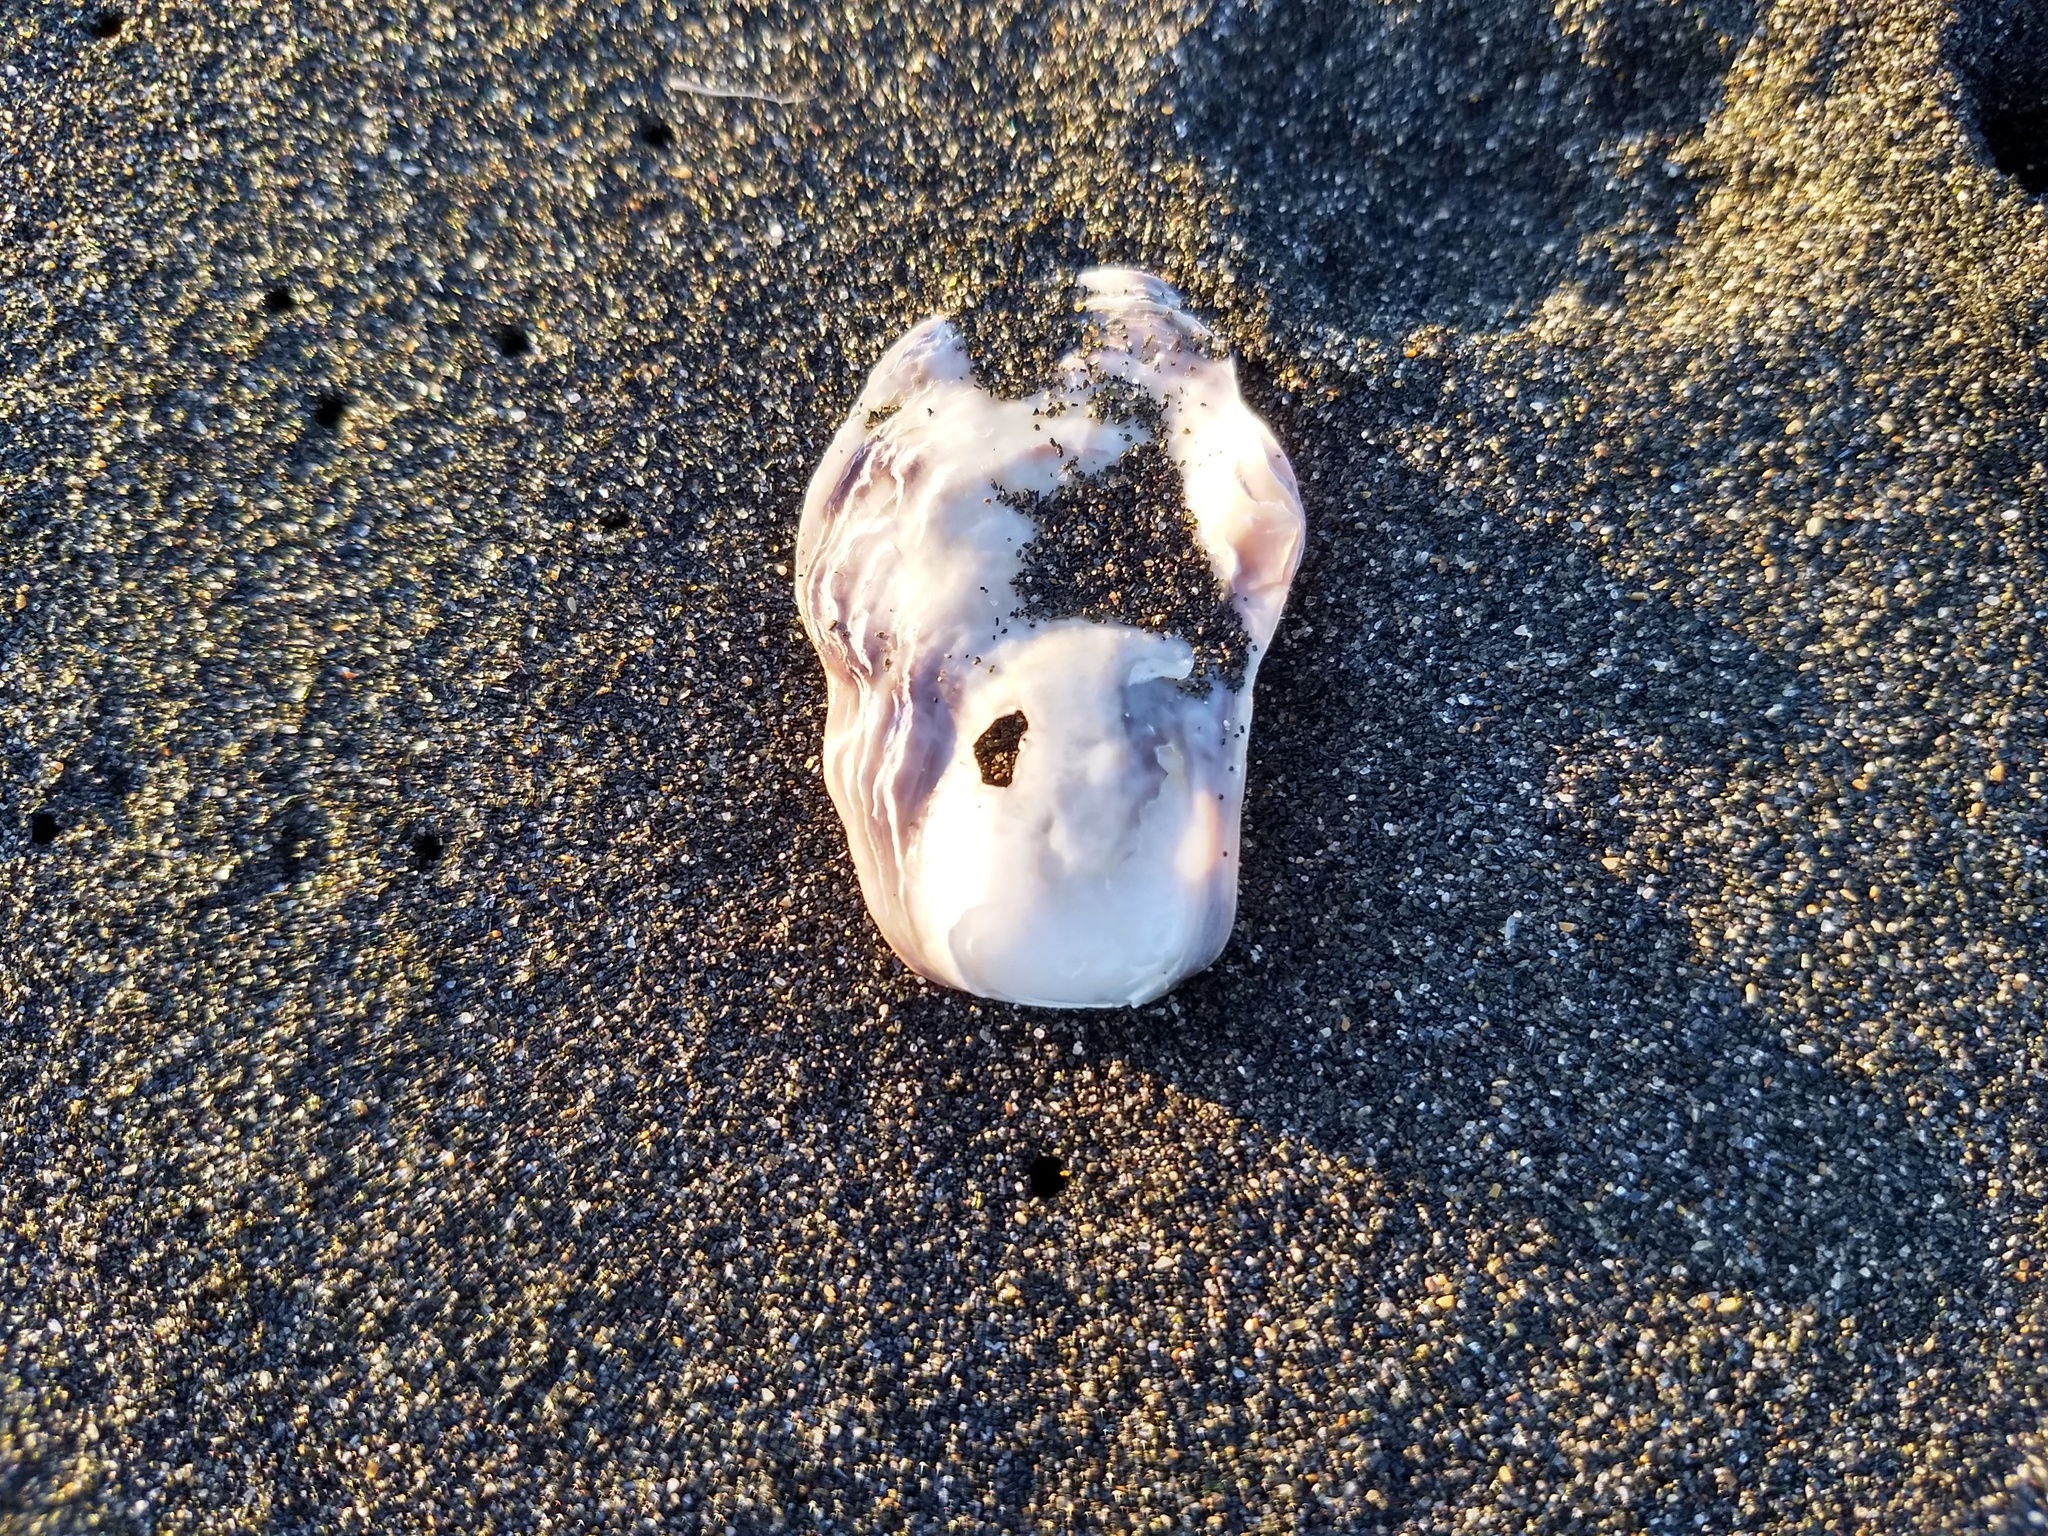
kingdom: Animalia
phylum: Mollusca
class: Bivalvia
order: Ostreida
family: Ostreidae
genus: Magallana
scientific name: Magallana gigas
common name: Pacific oyster
